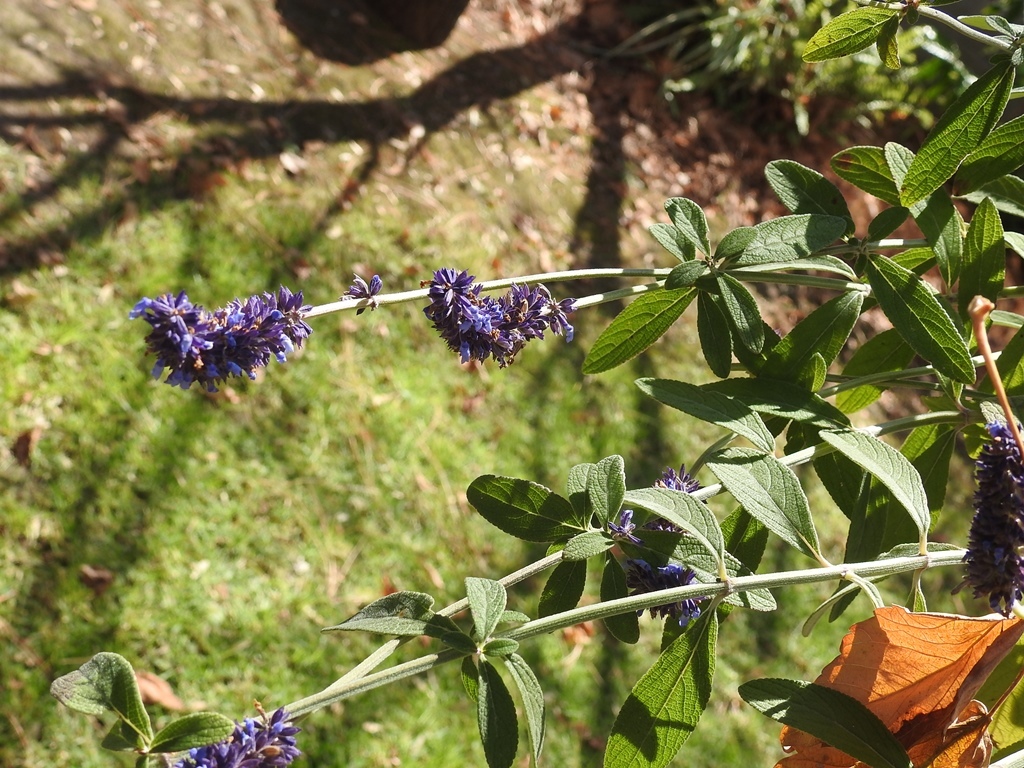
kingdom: Plantae
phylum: Tracheophyta
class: Magnoliopsida
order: Lamiales
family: Lamiaceae
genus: Salvia
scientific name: Salvia lavanduloides
